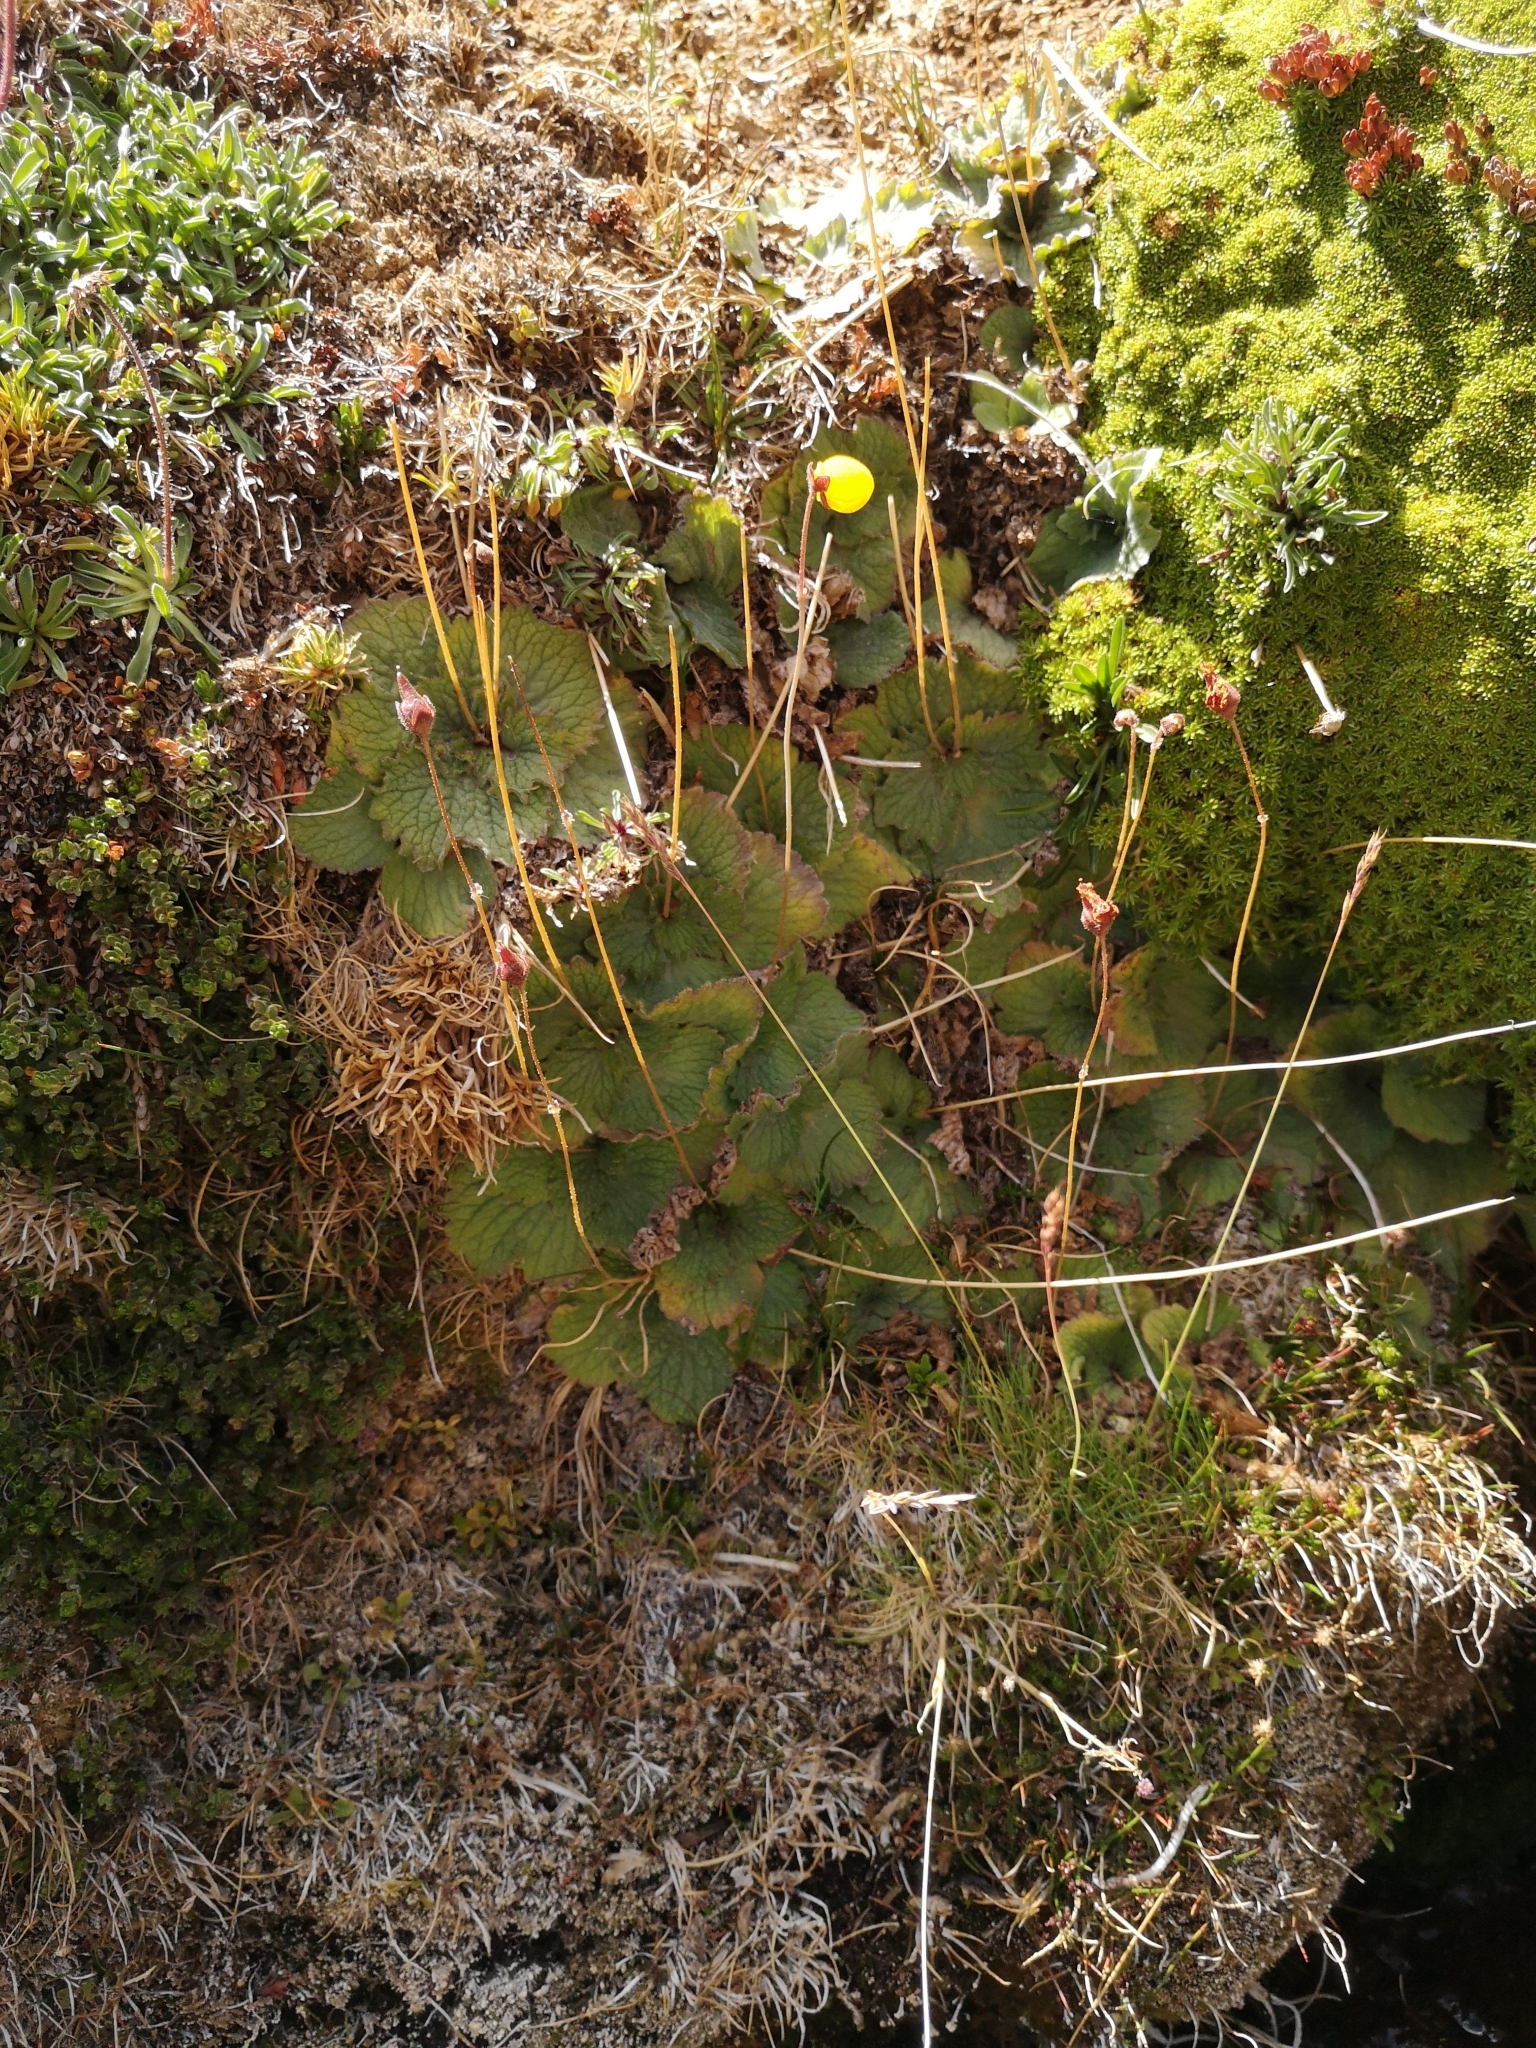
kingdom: Plantae
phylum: Tracheophyta
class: Magnoliopsida
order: Lamiales
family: Calceolariaceae
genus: Calceolaria
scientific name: Calceolaria filicaulis
